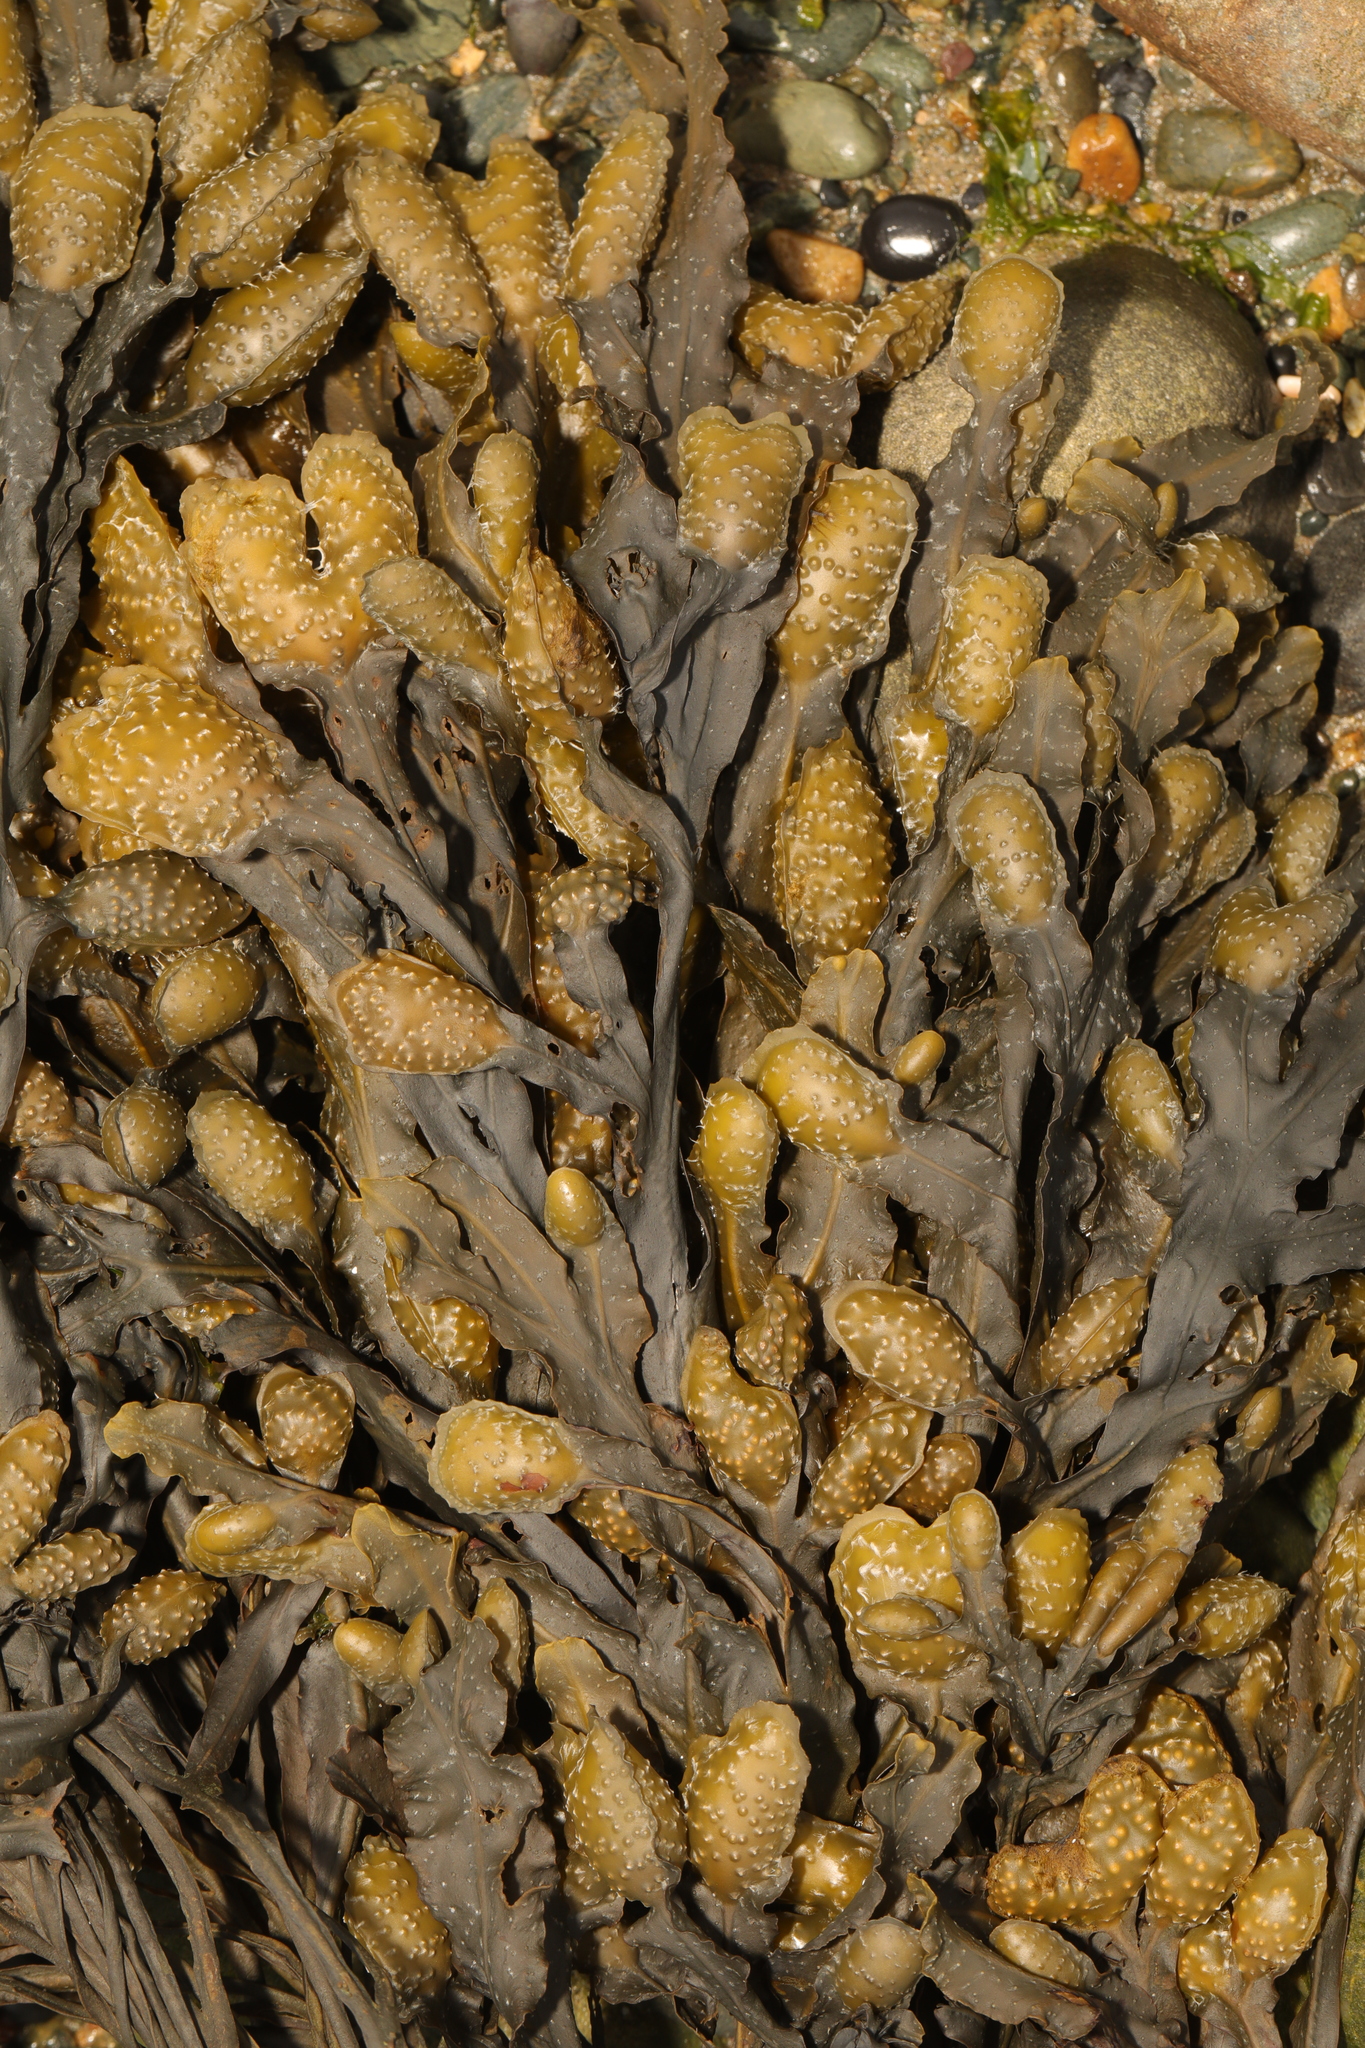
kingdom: Chromista
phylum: Ochrophyta
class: Phaeophyceae
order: Fucales
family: Fucaceae
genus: Fucus
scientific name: Fucus spiralis
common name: Spiral wrack
